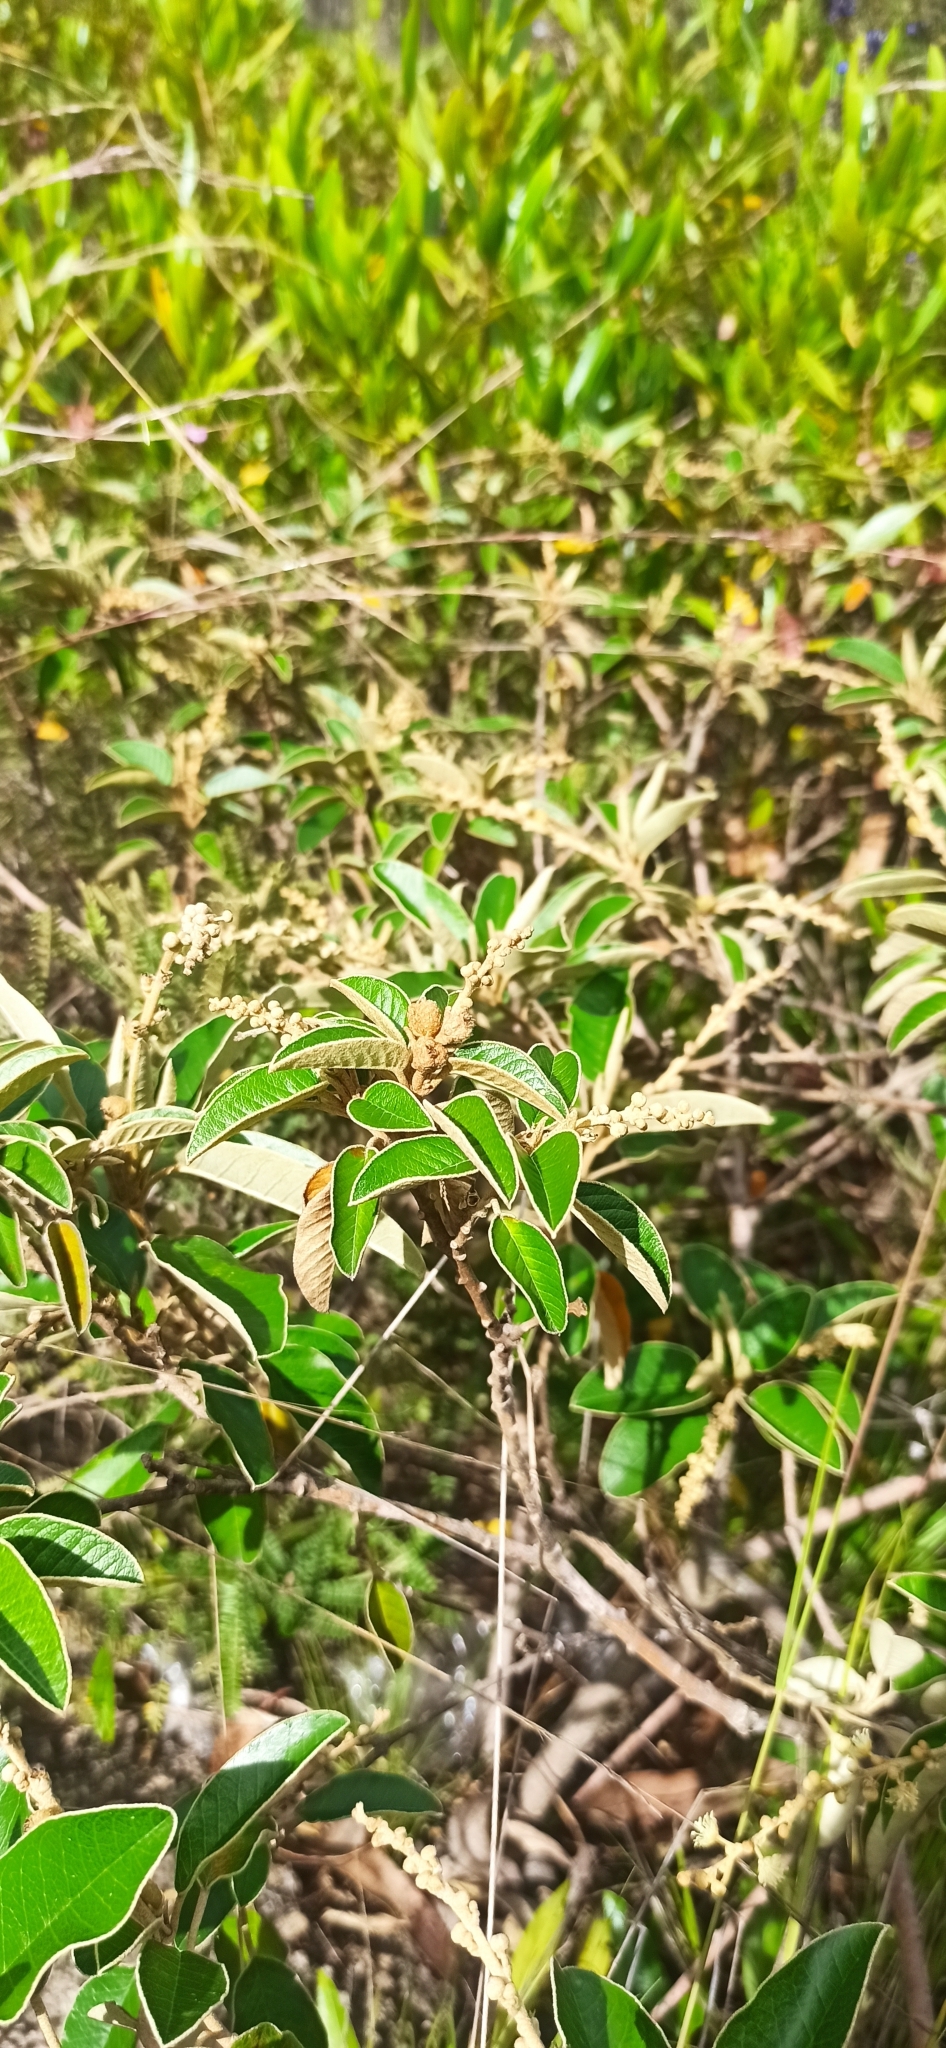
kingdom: Plantae
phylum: Tracheophyta
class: Magnoliopsida
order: Malpighiales
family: Euphorbiaceae
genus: Croton
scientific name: Croton ferrugineus
